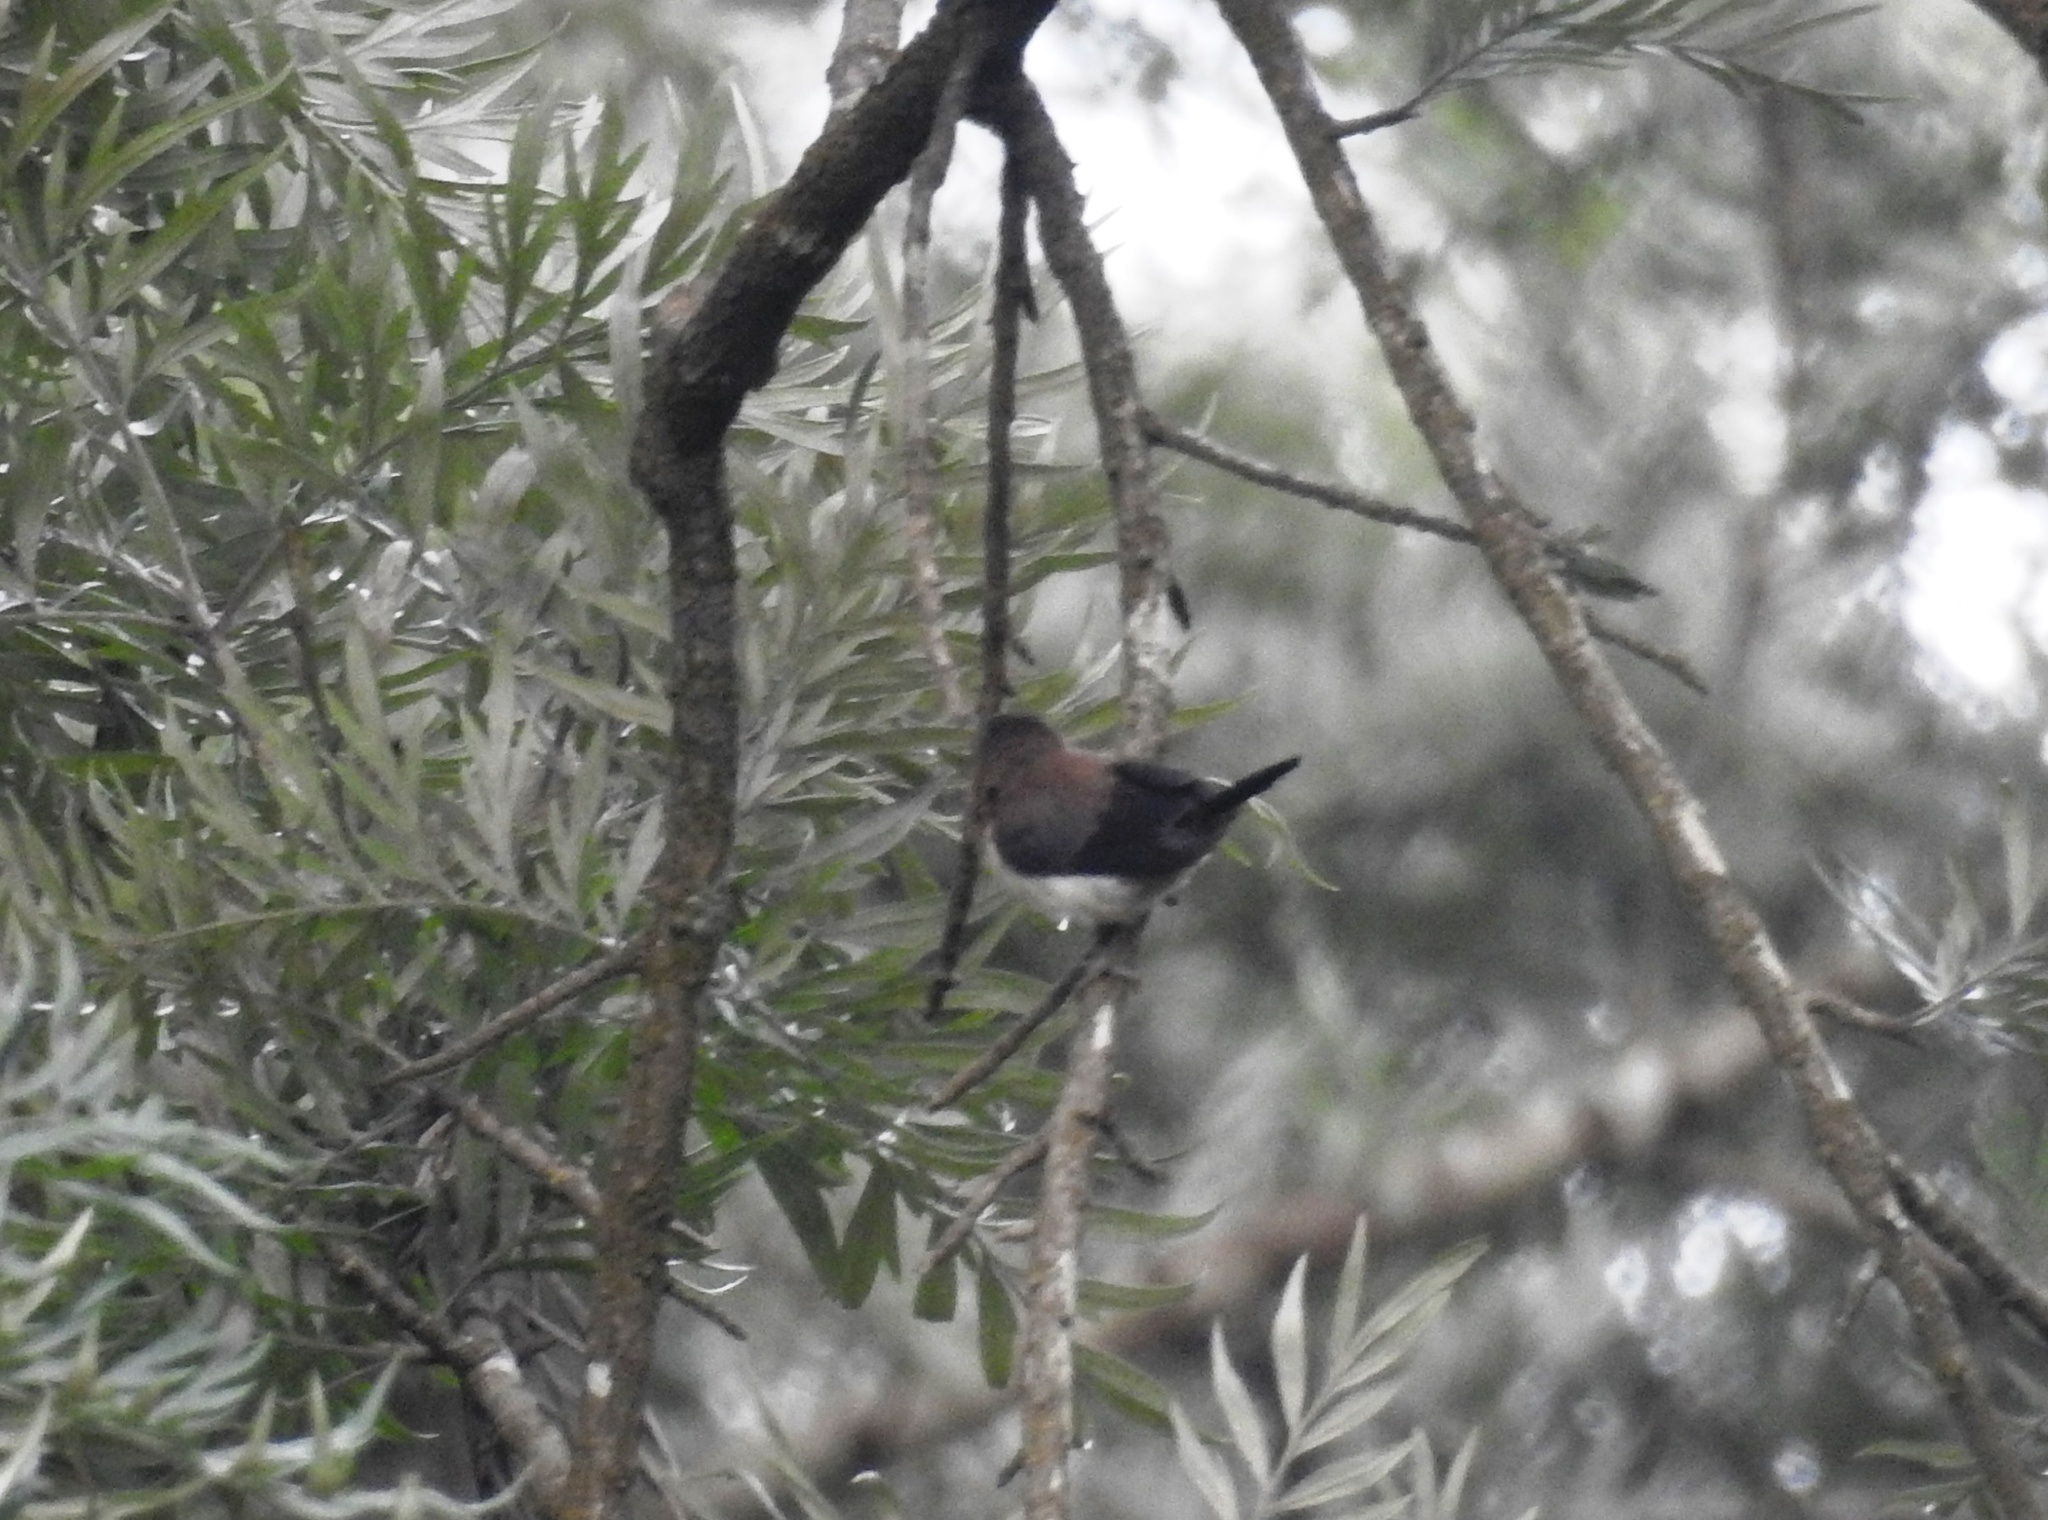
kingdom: Animalia
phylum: Chordata
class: Aves
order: Passeriformes
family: Estrildidae
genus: Lonchura
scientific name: Lonchura striata
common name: White-rumped munia
